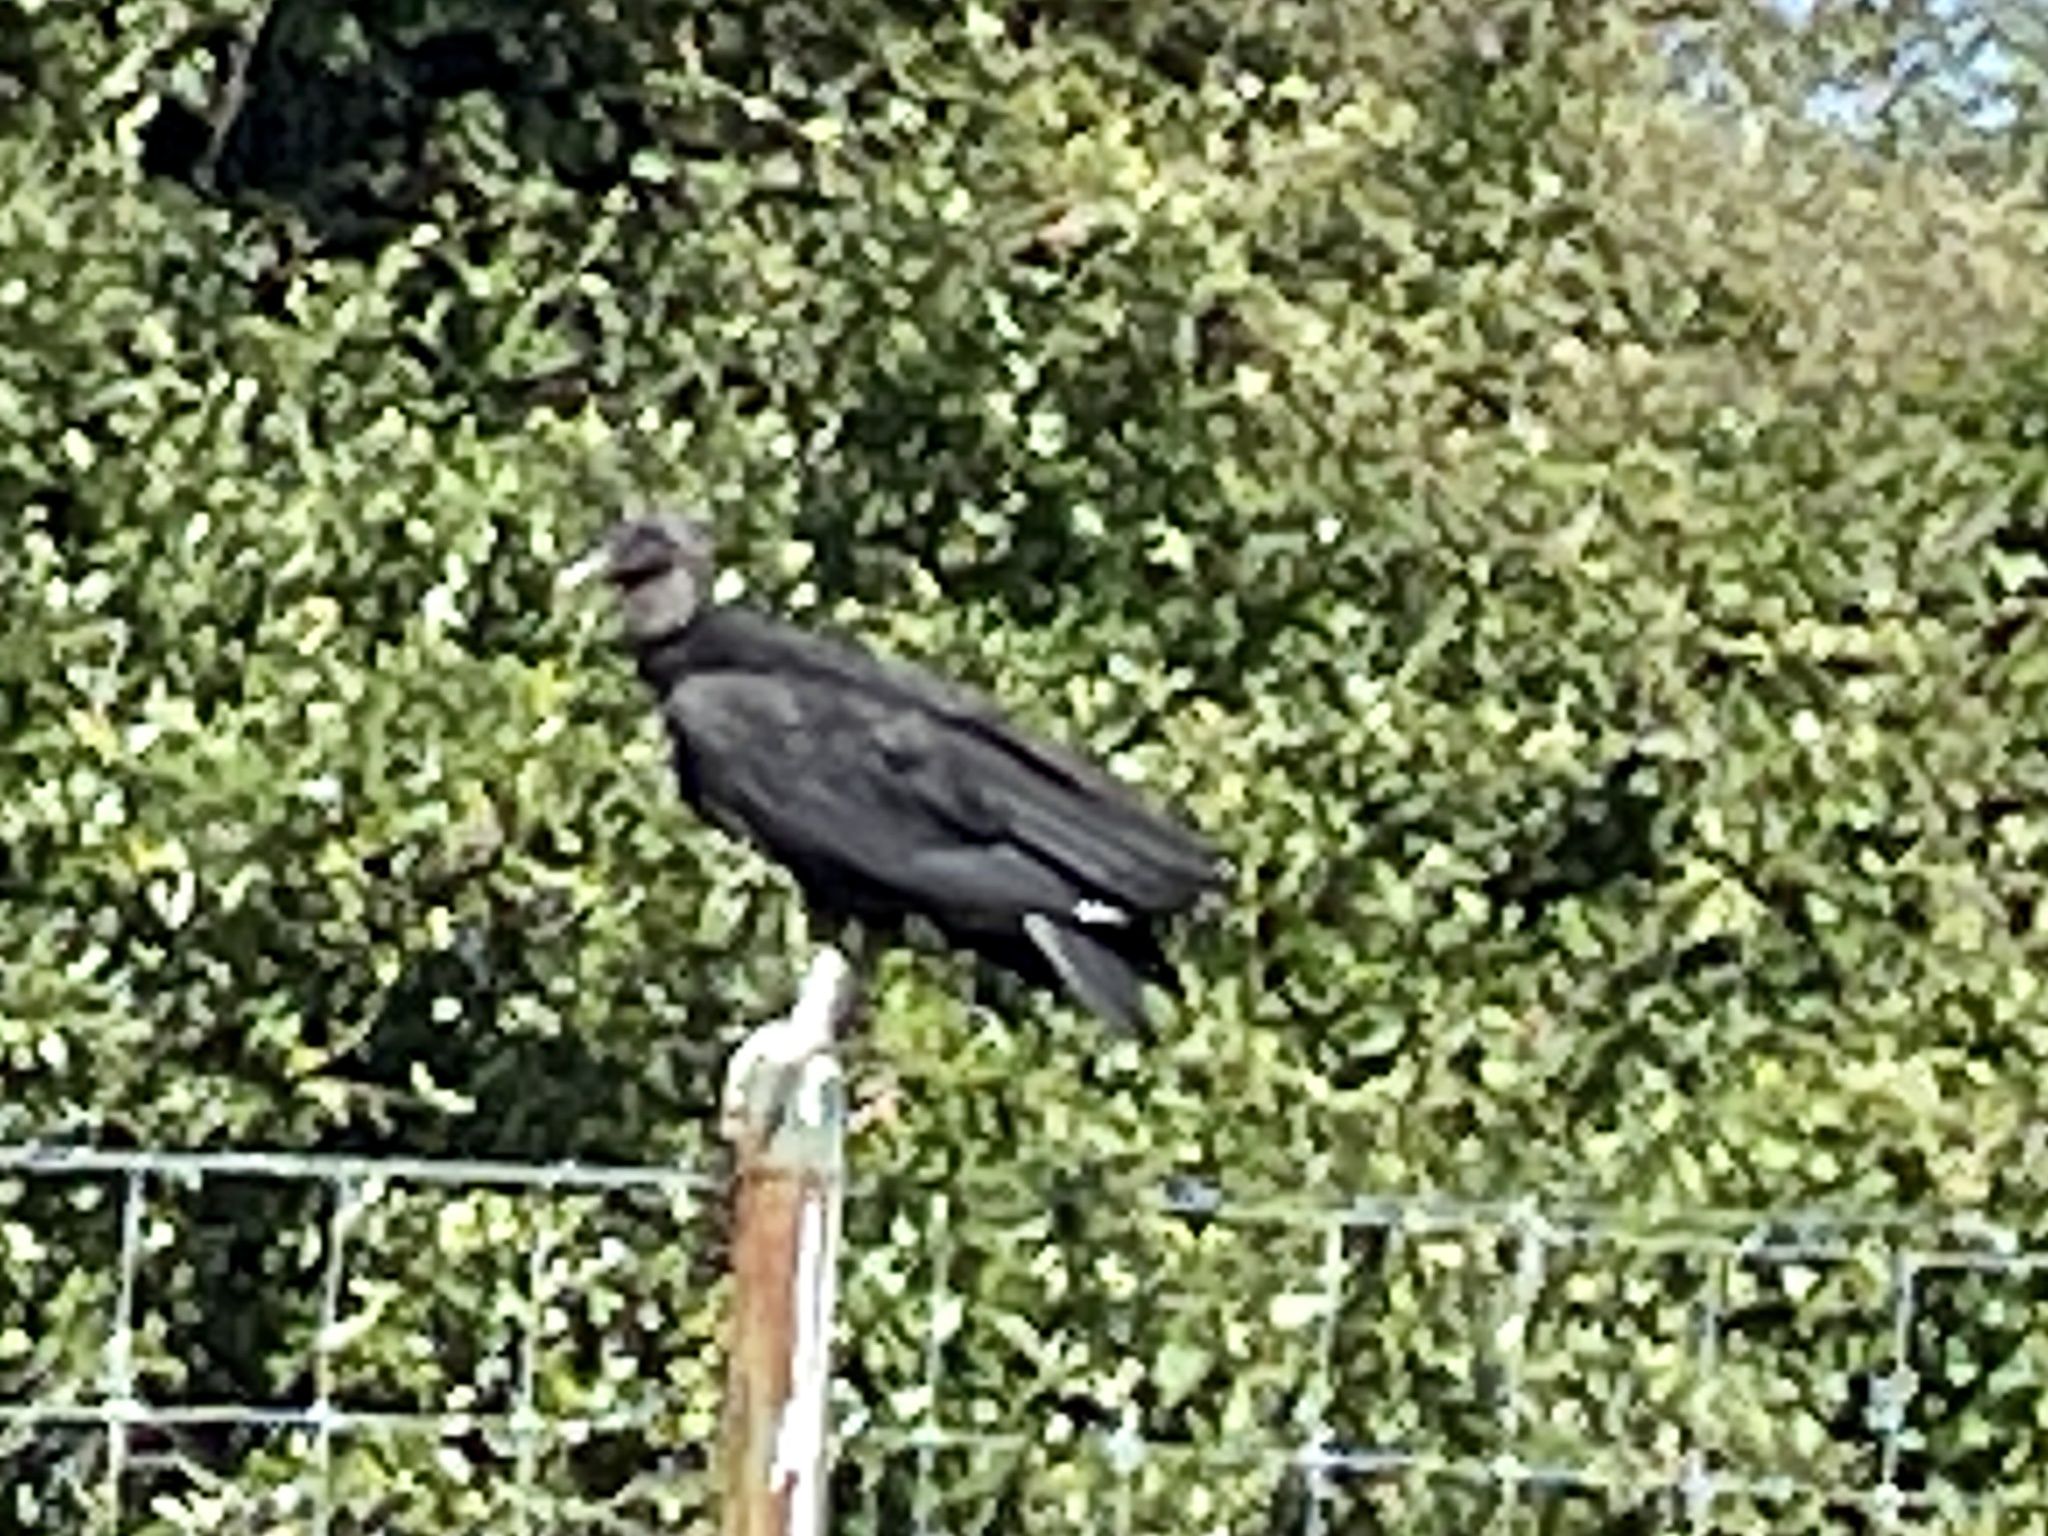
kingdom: Animalia
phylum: Chordata
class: Aves
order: Accipitriformes
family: Cathartidae
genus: Coragyps
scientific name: Coragyps atratus
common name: Black vulture
